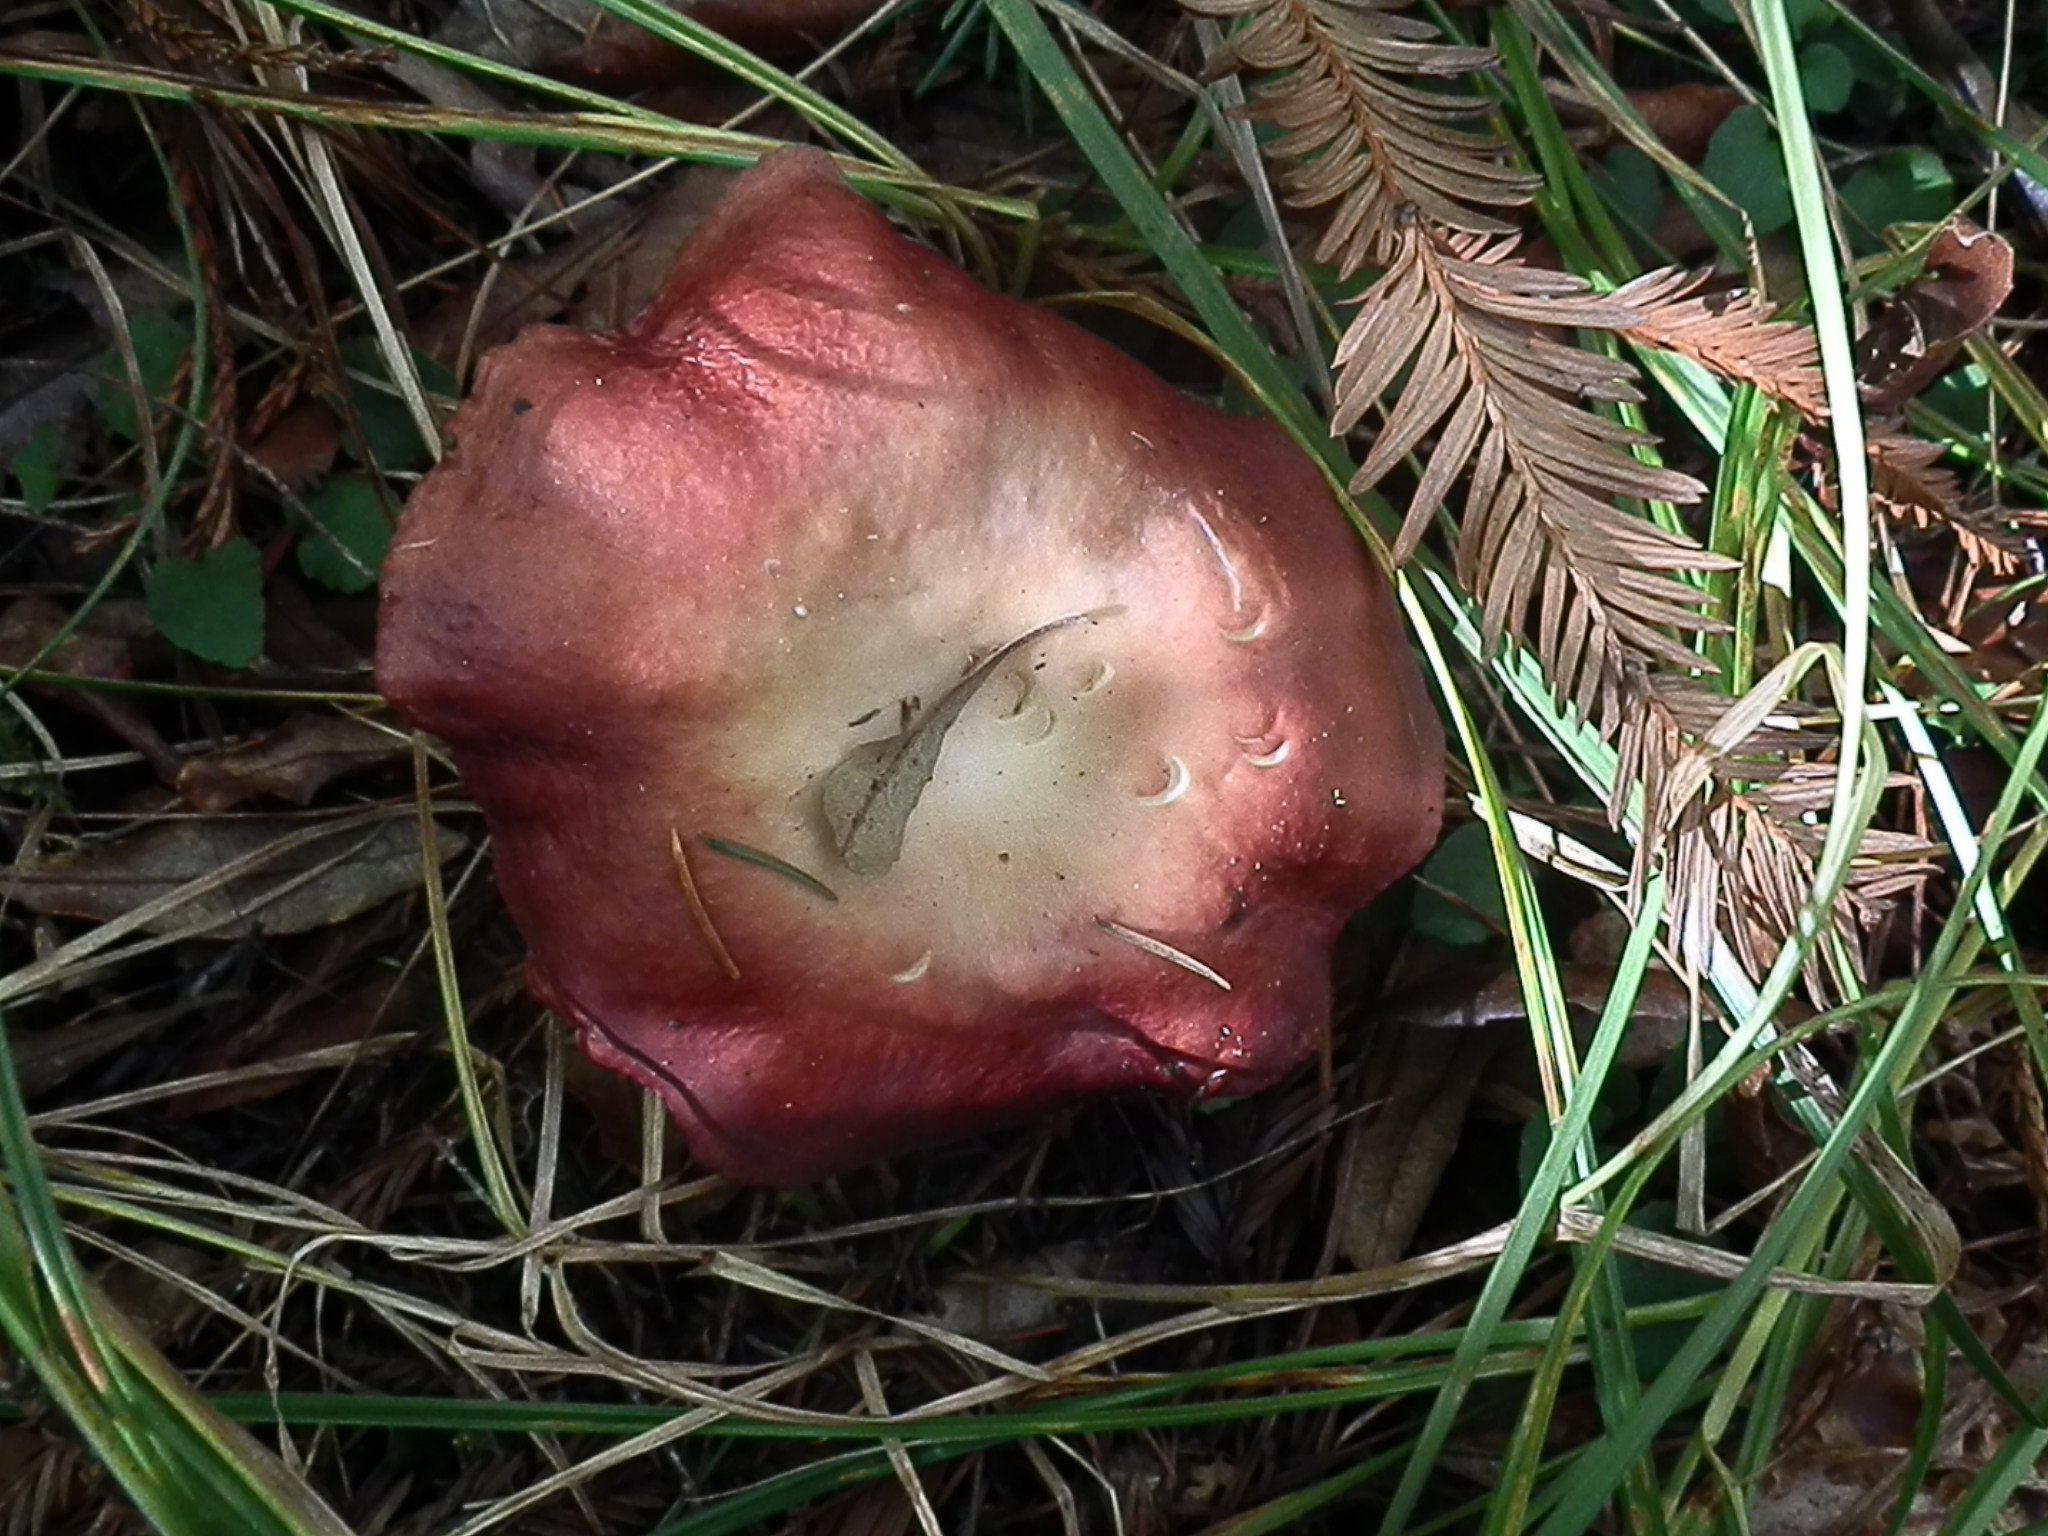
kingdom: Fungi
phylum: Basidiomycota
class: Agaricomycetes
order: Russulales
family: Russulaceae
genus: Russula
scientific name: Russula californiensis
